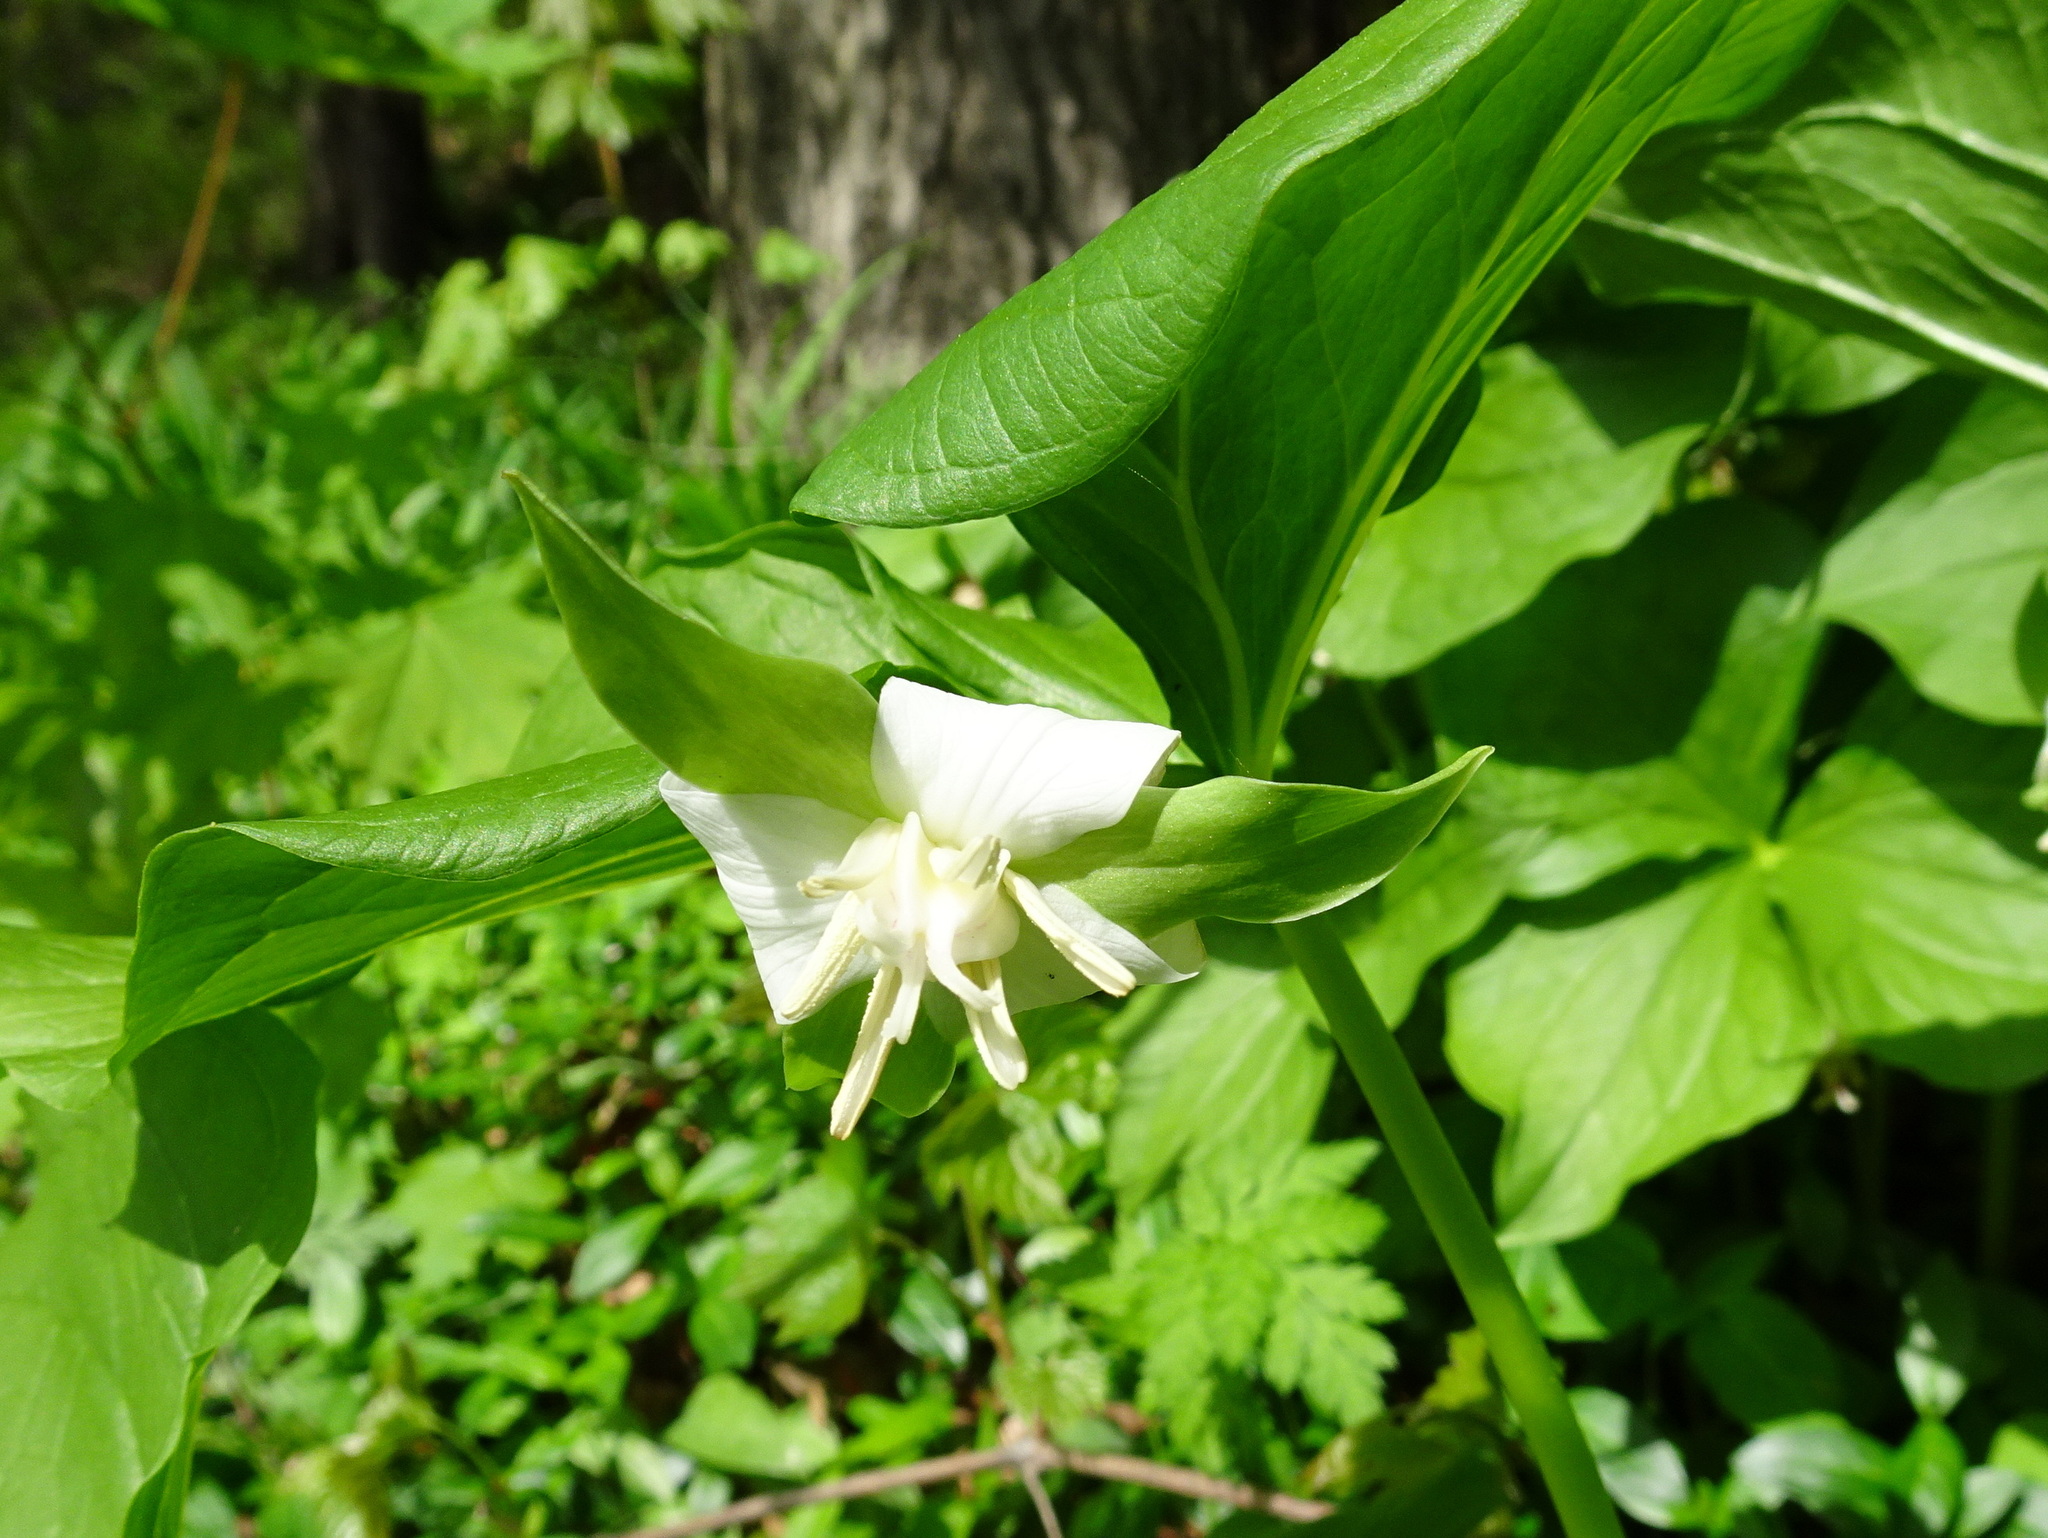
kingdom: Plantae
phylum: Tracheophyta
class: Liliopsida
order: Liliales
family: Melanthiaceae
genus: Trillium
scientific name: Trillium flexipes
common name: Drooping trillium
